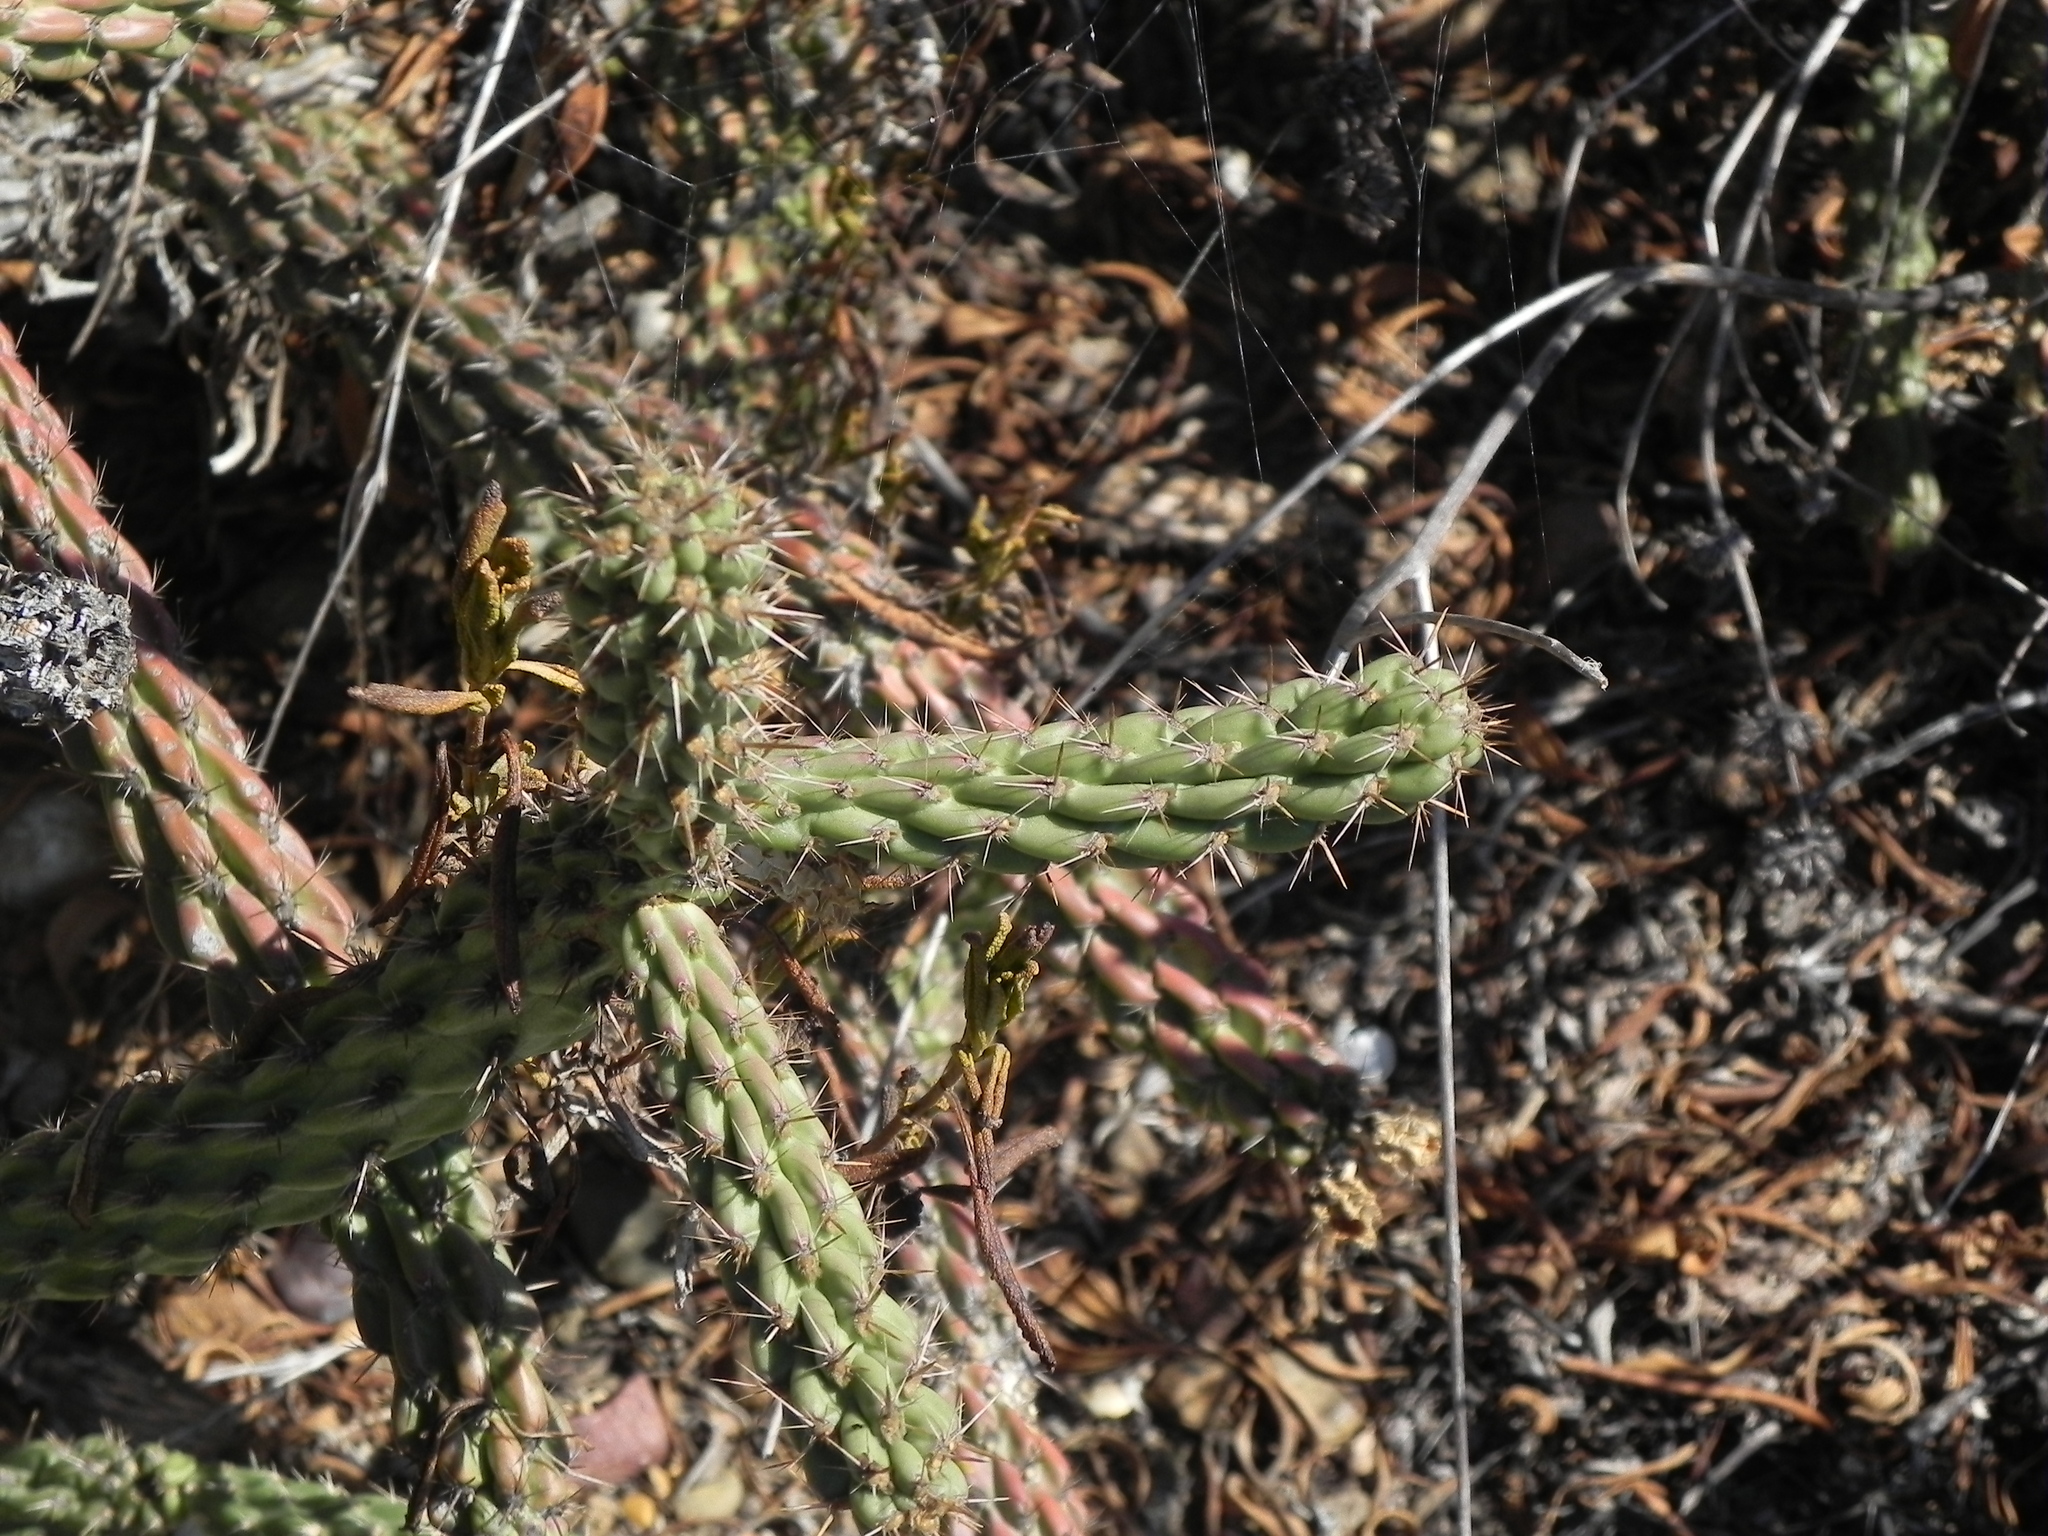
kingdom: Plantae
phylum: Tracheophyta
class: Magnoliopsida
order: Caryophyllales
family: Cactaceae
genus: Cylindropuntia
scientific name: Cylindropuntia californica
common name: Snake cholla
